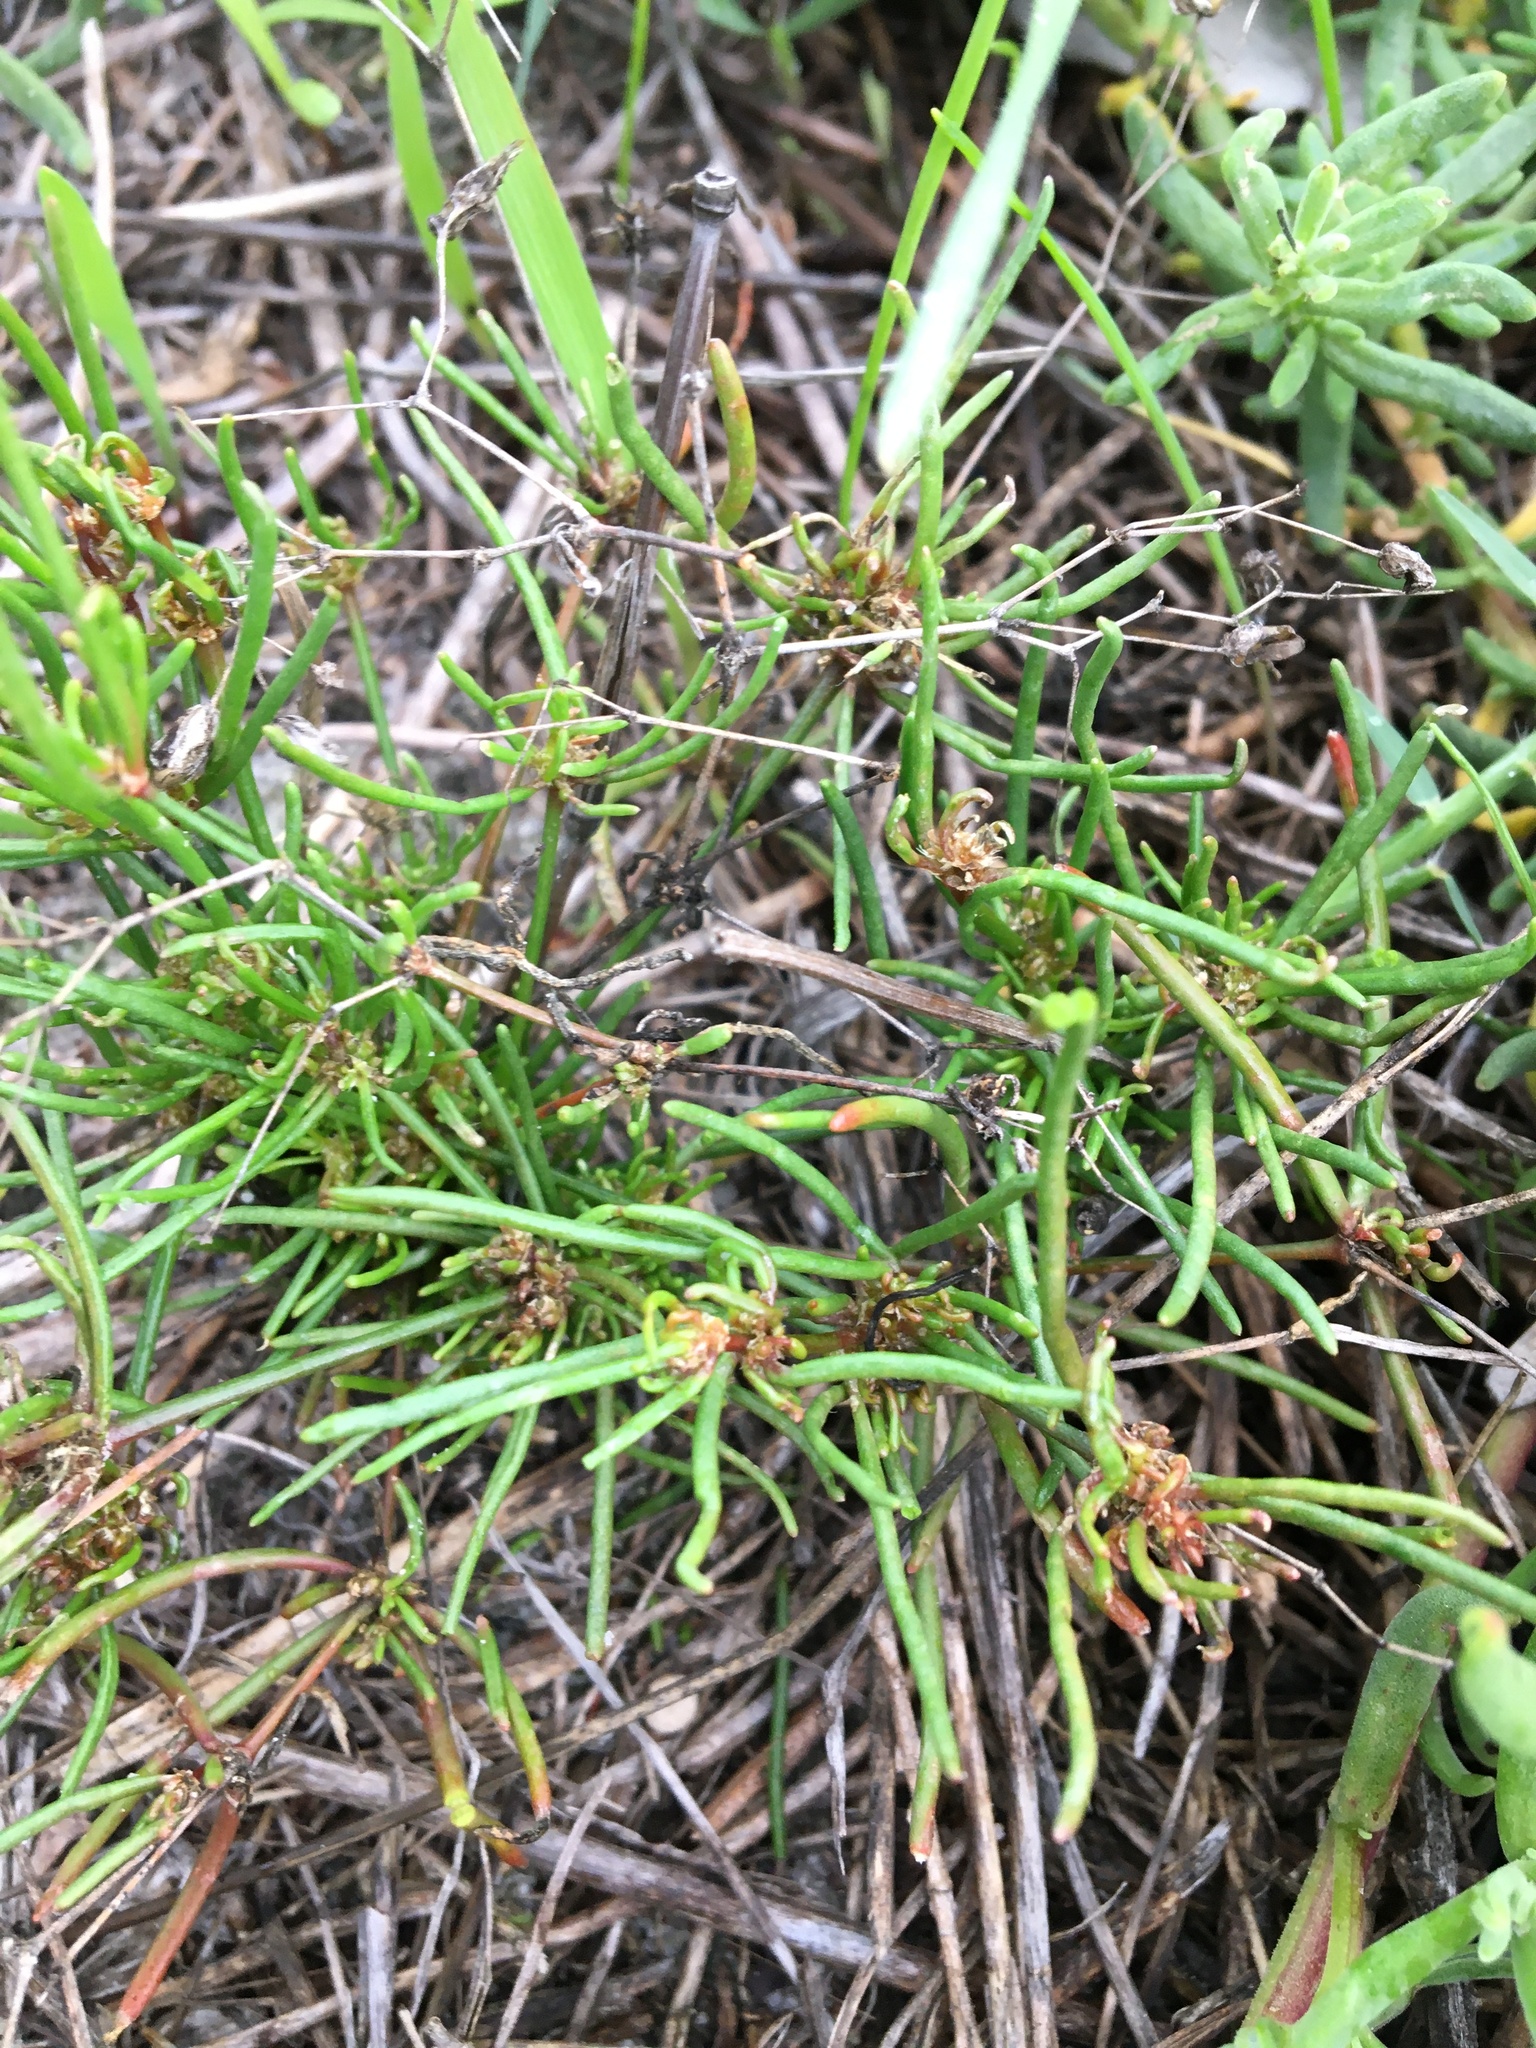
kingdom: Plantae
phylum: Tracheophyta
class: Magnoliopsida
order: Caryophyllales
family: Caryophyllaceae
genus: Spergula
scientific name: Spergula arvensis
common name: Corn spurrey
